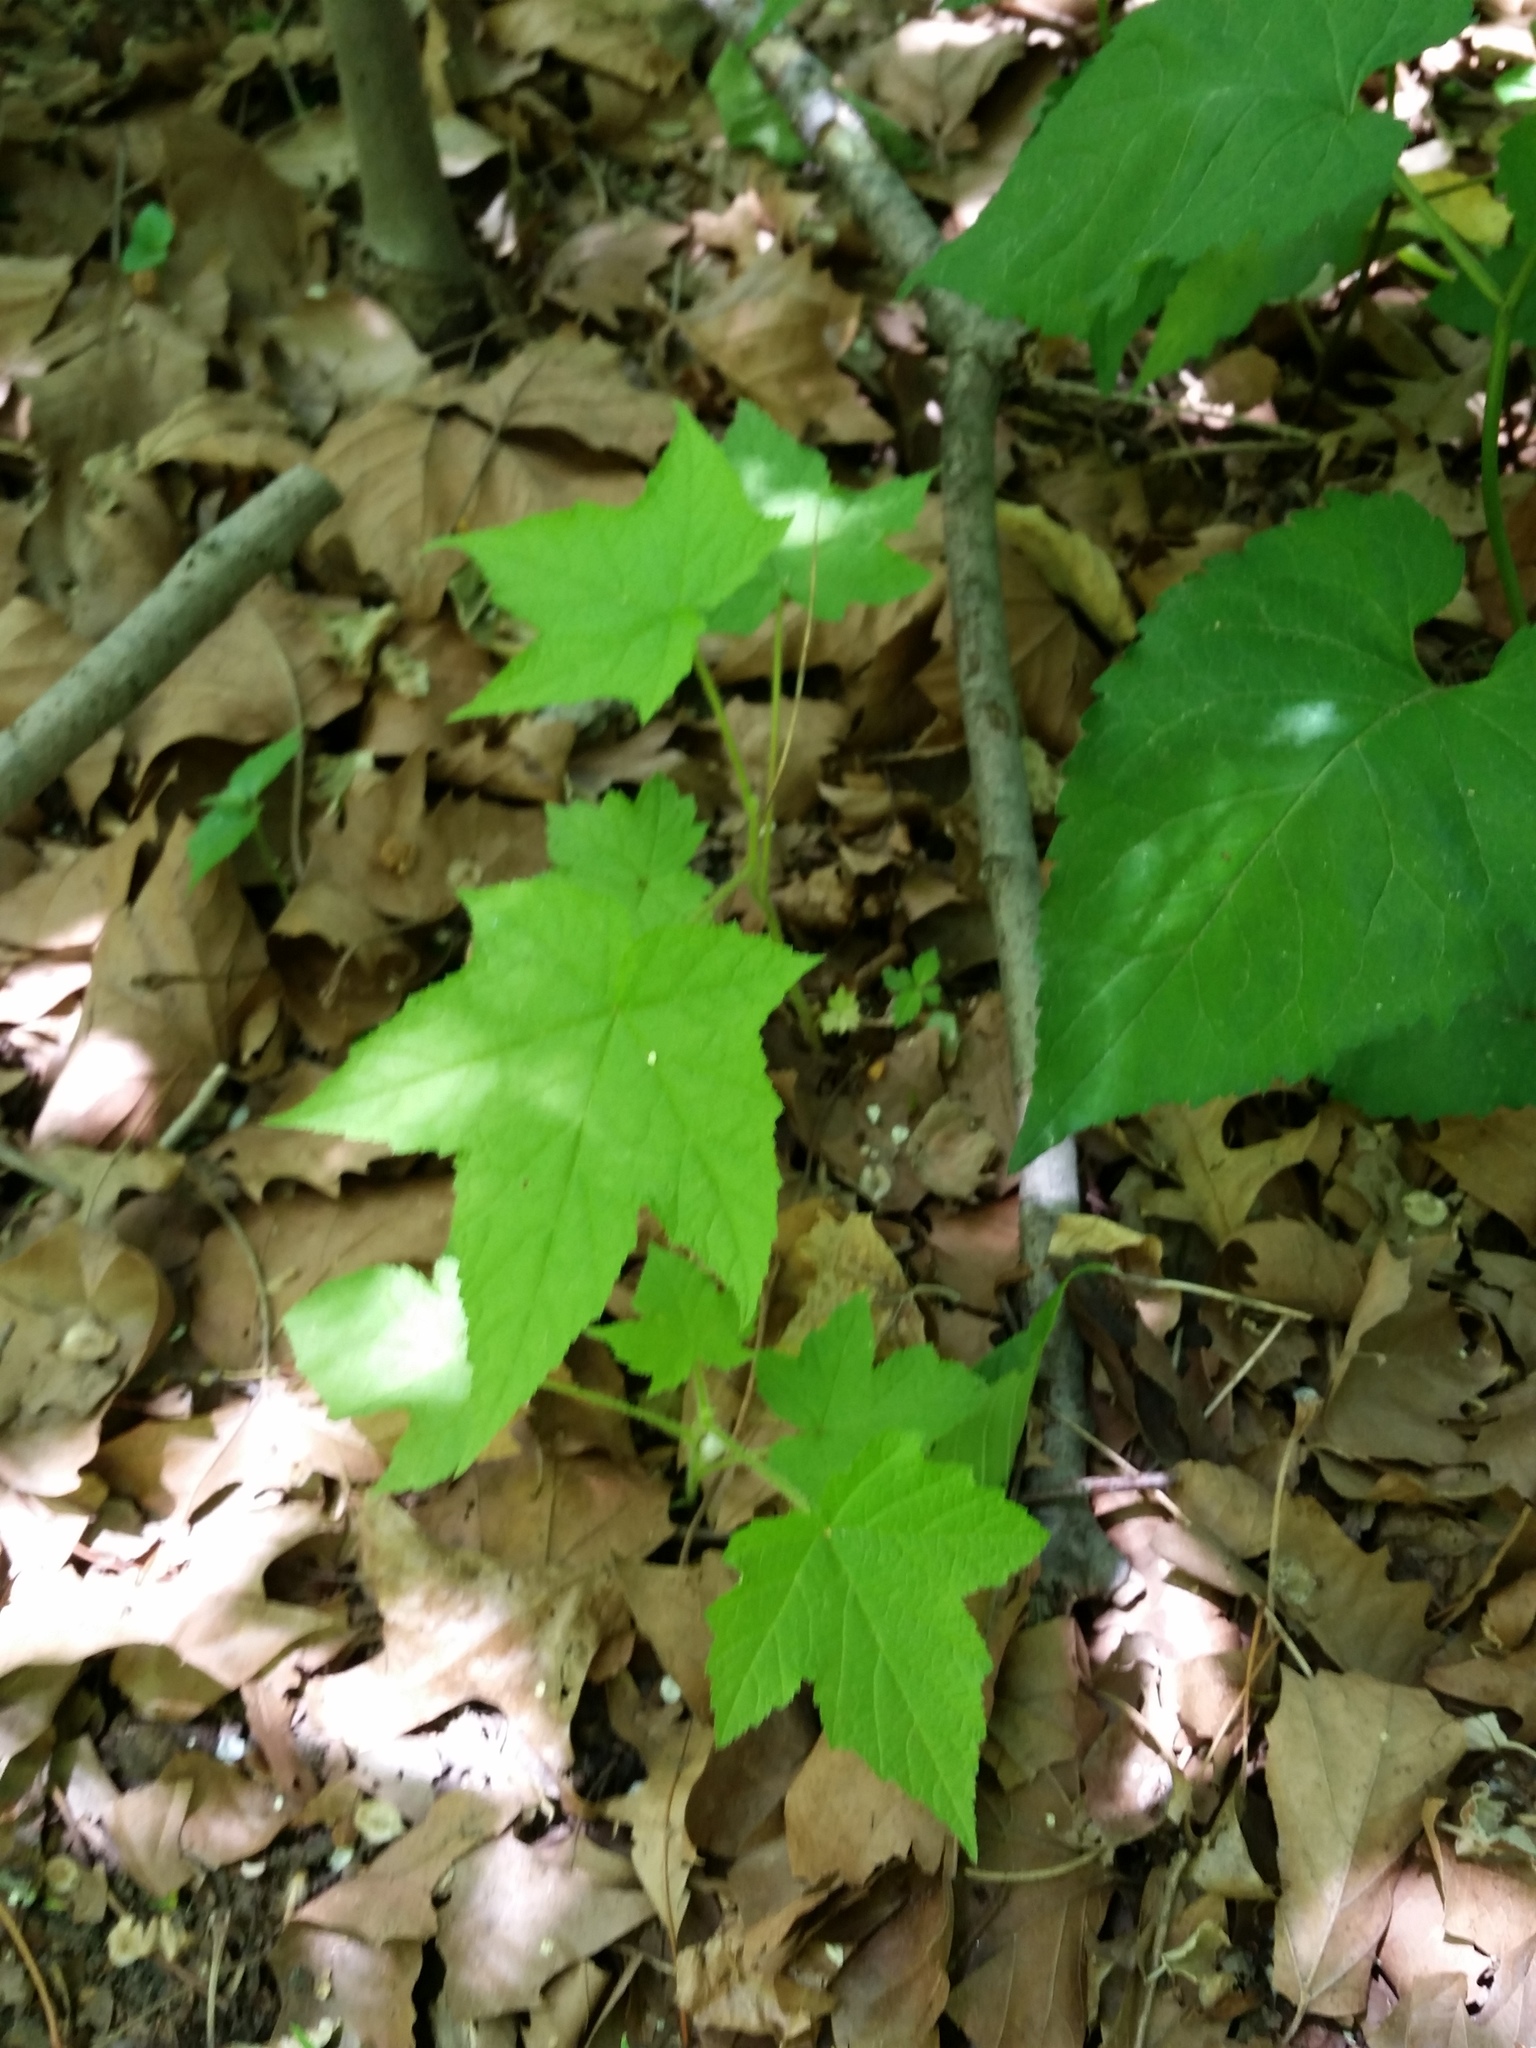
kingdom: Plantae
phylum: Tracheophyta
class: Magnoliopsida
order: Rosales
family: Rosaceae
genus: Rubus
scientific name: Rubus odoratus
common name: Purple-flowered raspberry
